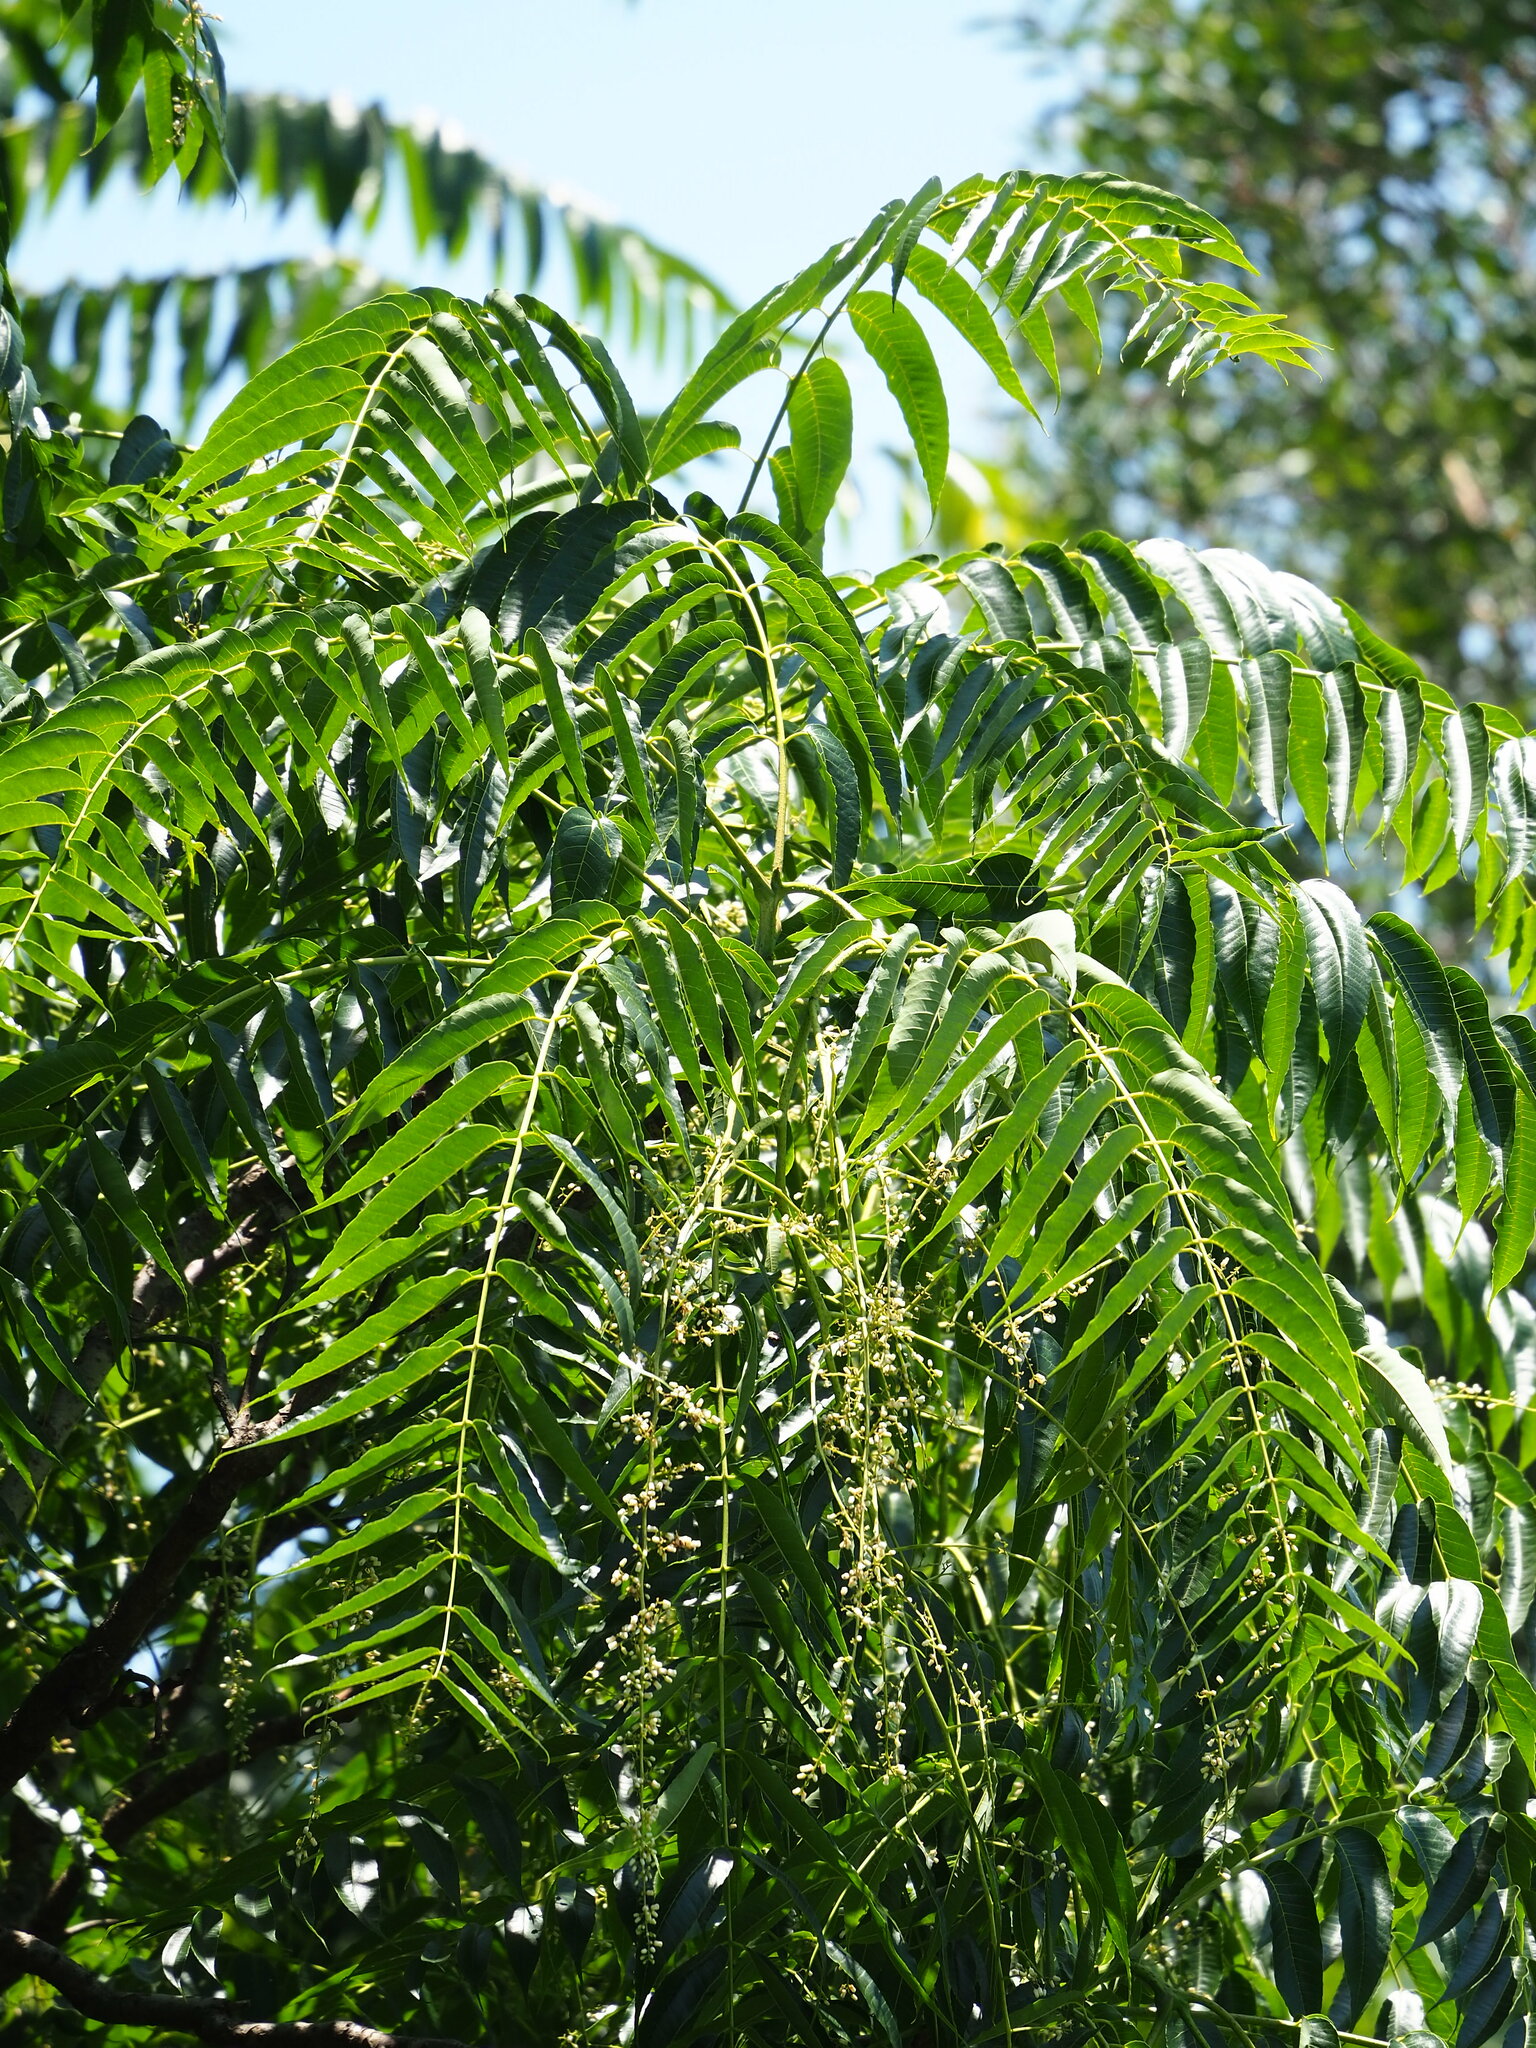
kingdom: Plantae
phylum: Tracheophyta
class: Magnoliopsida
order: Sapindales
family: Meliaceae
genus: Toona
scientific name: Toona sinensis
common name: Red toon
